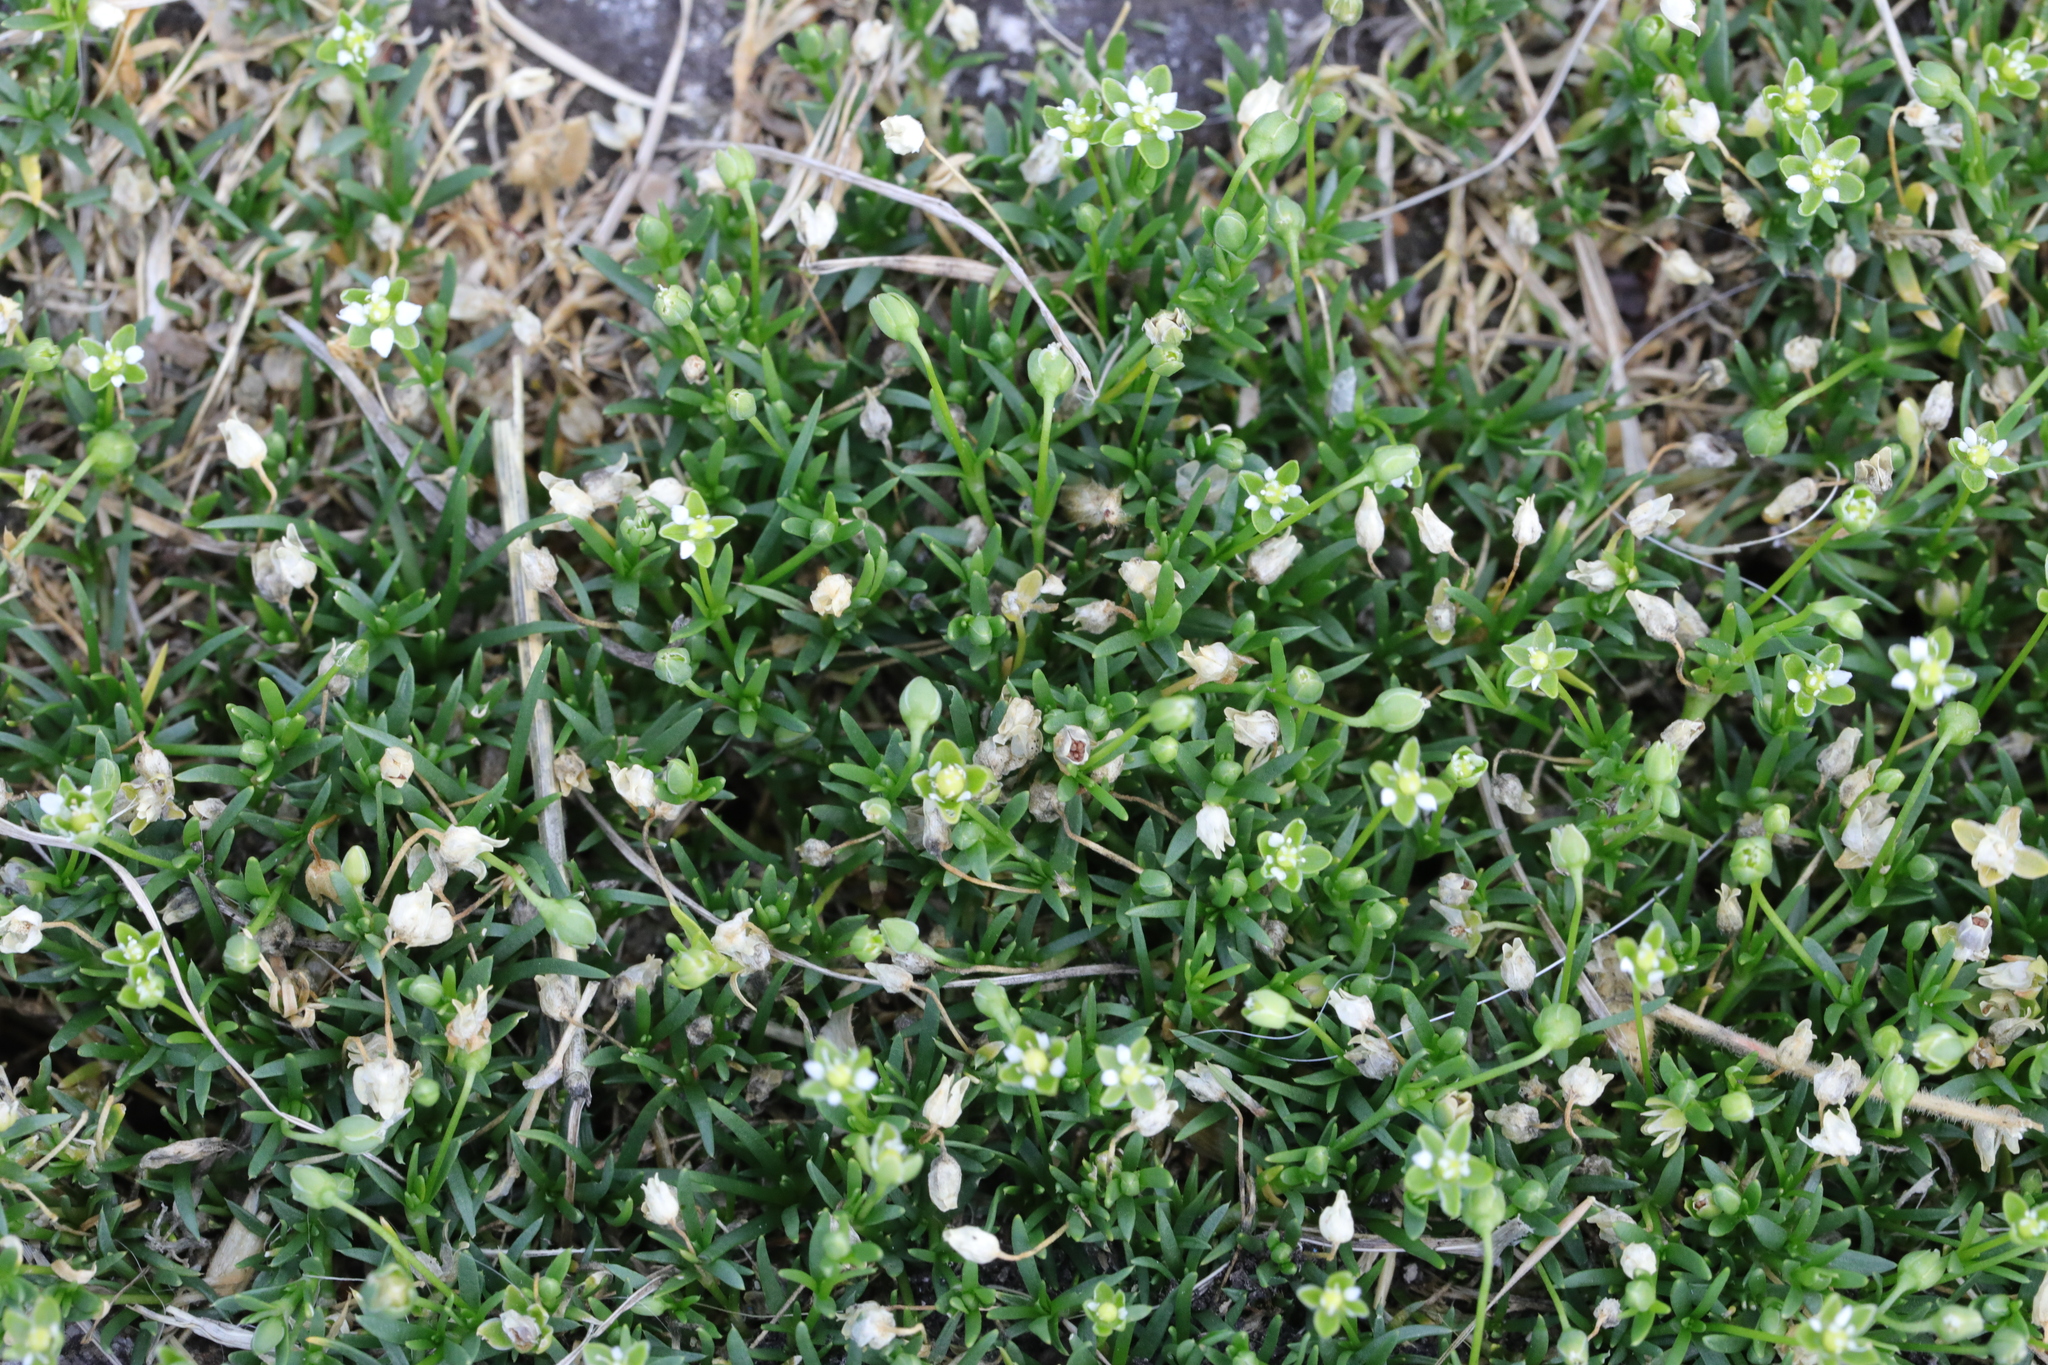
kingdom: Plantae
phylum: Tracheophyta
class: Magnoliopsida
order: Caryophyllales
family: Caryophyllaceae
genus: Sagina
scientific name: Sagina procumbens
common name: Procumbent pearlwort
